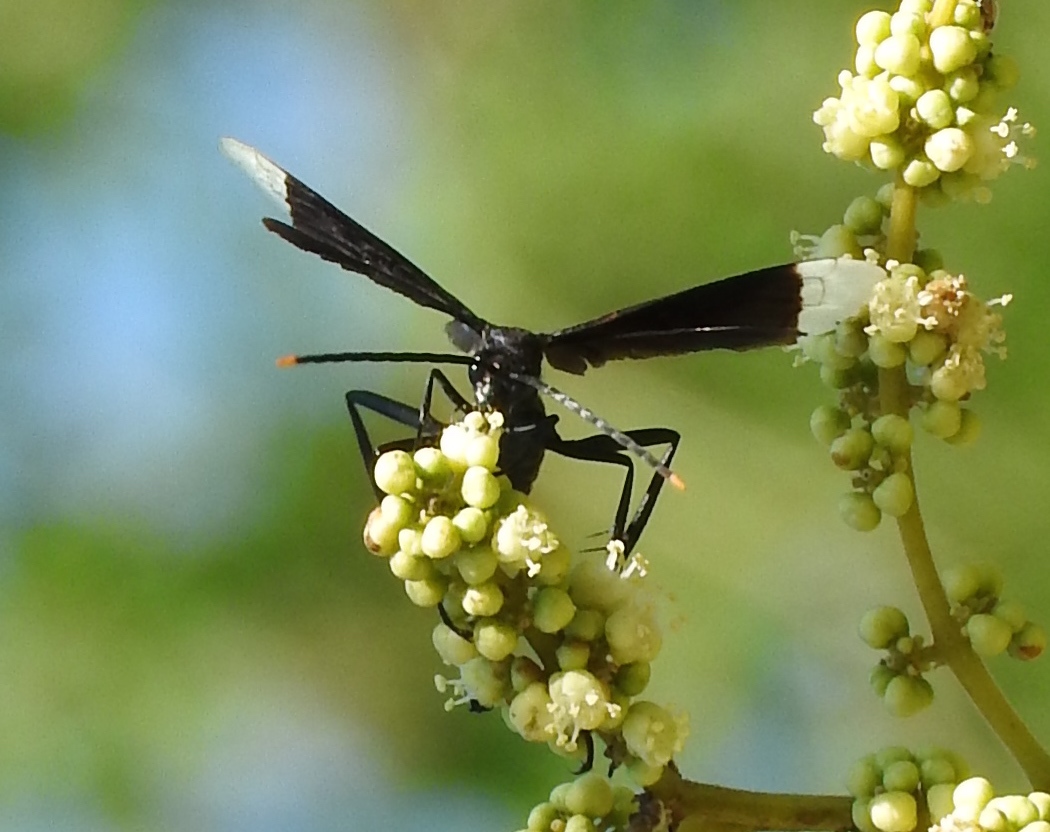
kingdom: Animalia
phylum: Arthropoda
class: Insecta
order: Hymenoptera
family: Pompilidae
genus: Pepsis
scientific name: Pepsis
